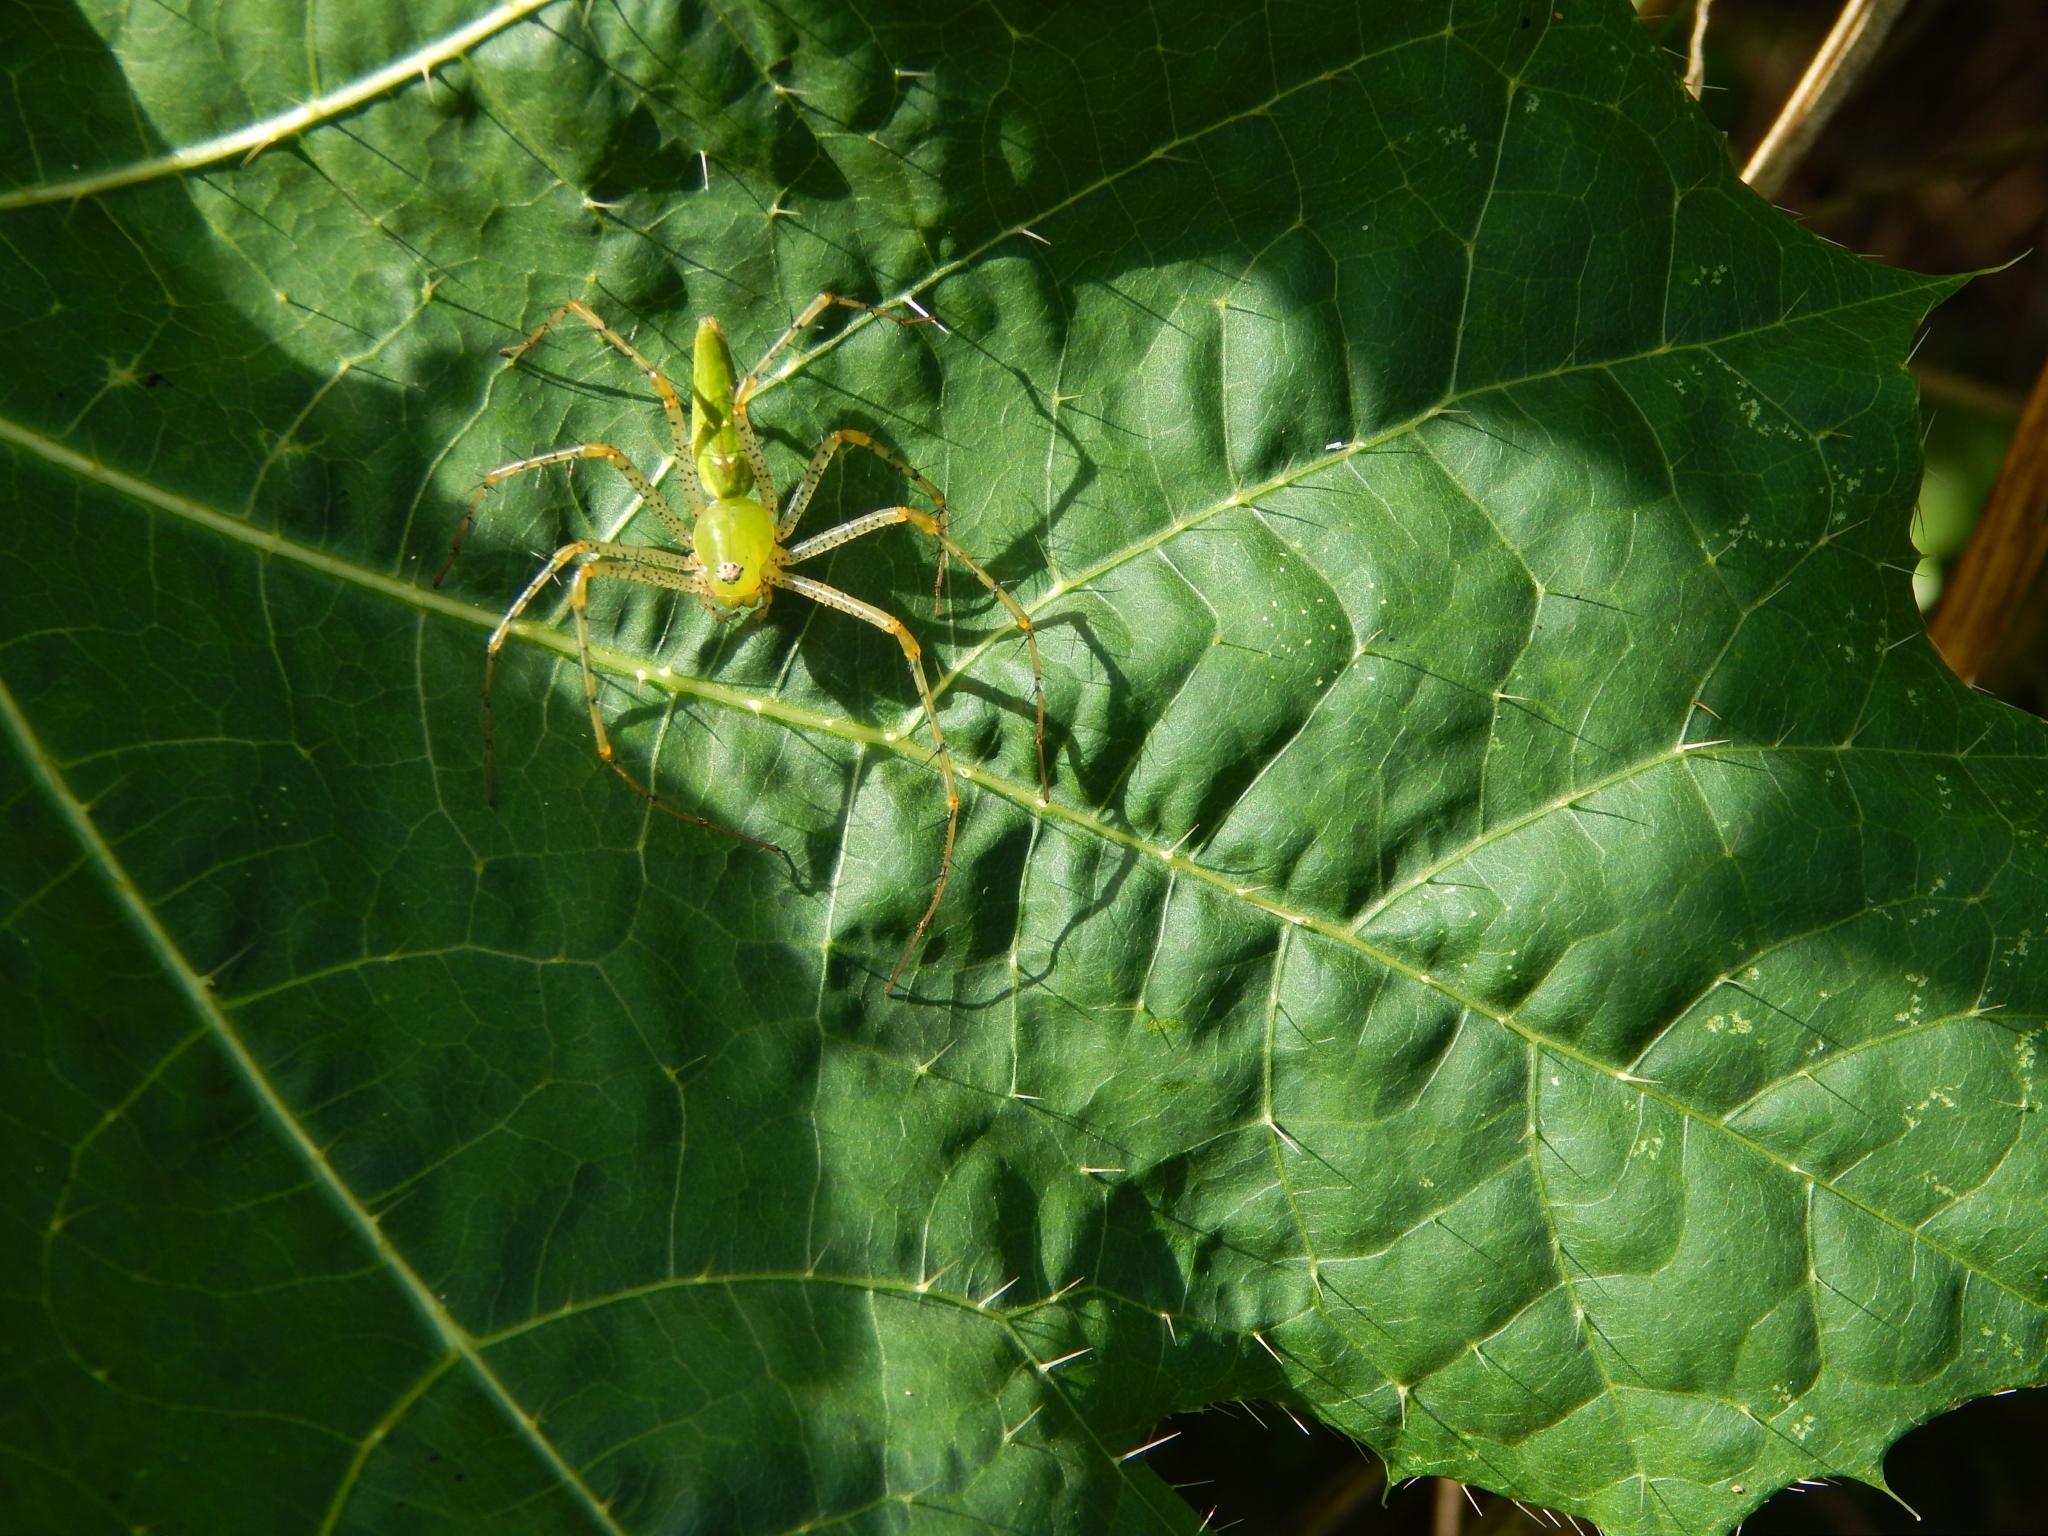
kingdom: Animalia
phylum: Arthropoda
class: Arachnida
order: Araneae
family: Oxyopidae
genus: Peucetia
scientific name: Peucetia viridans
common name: Lynx spiders
